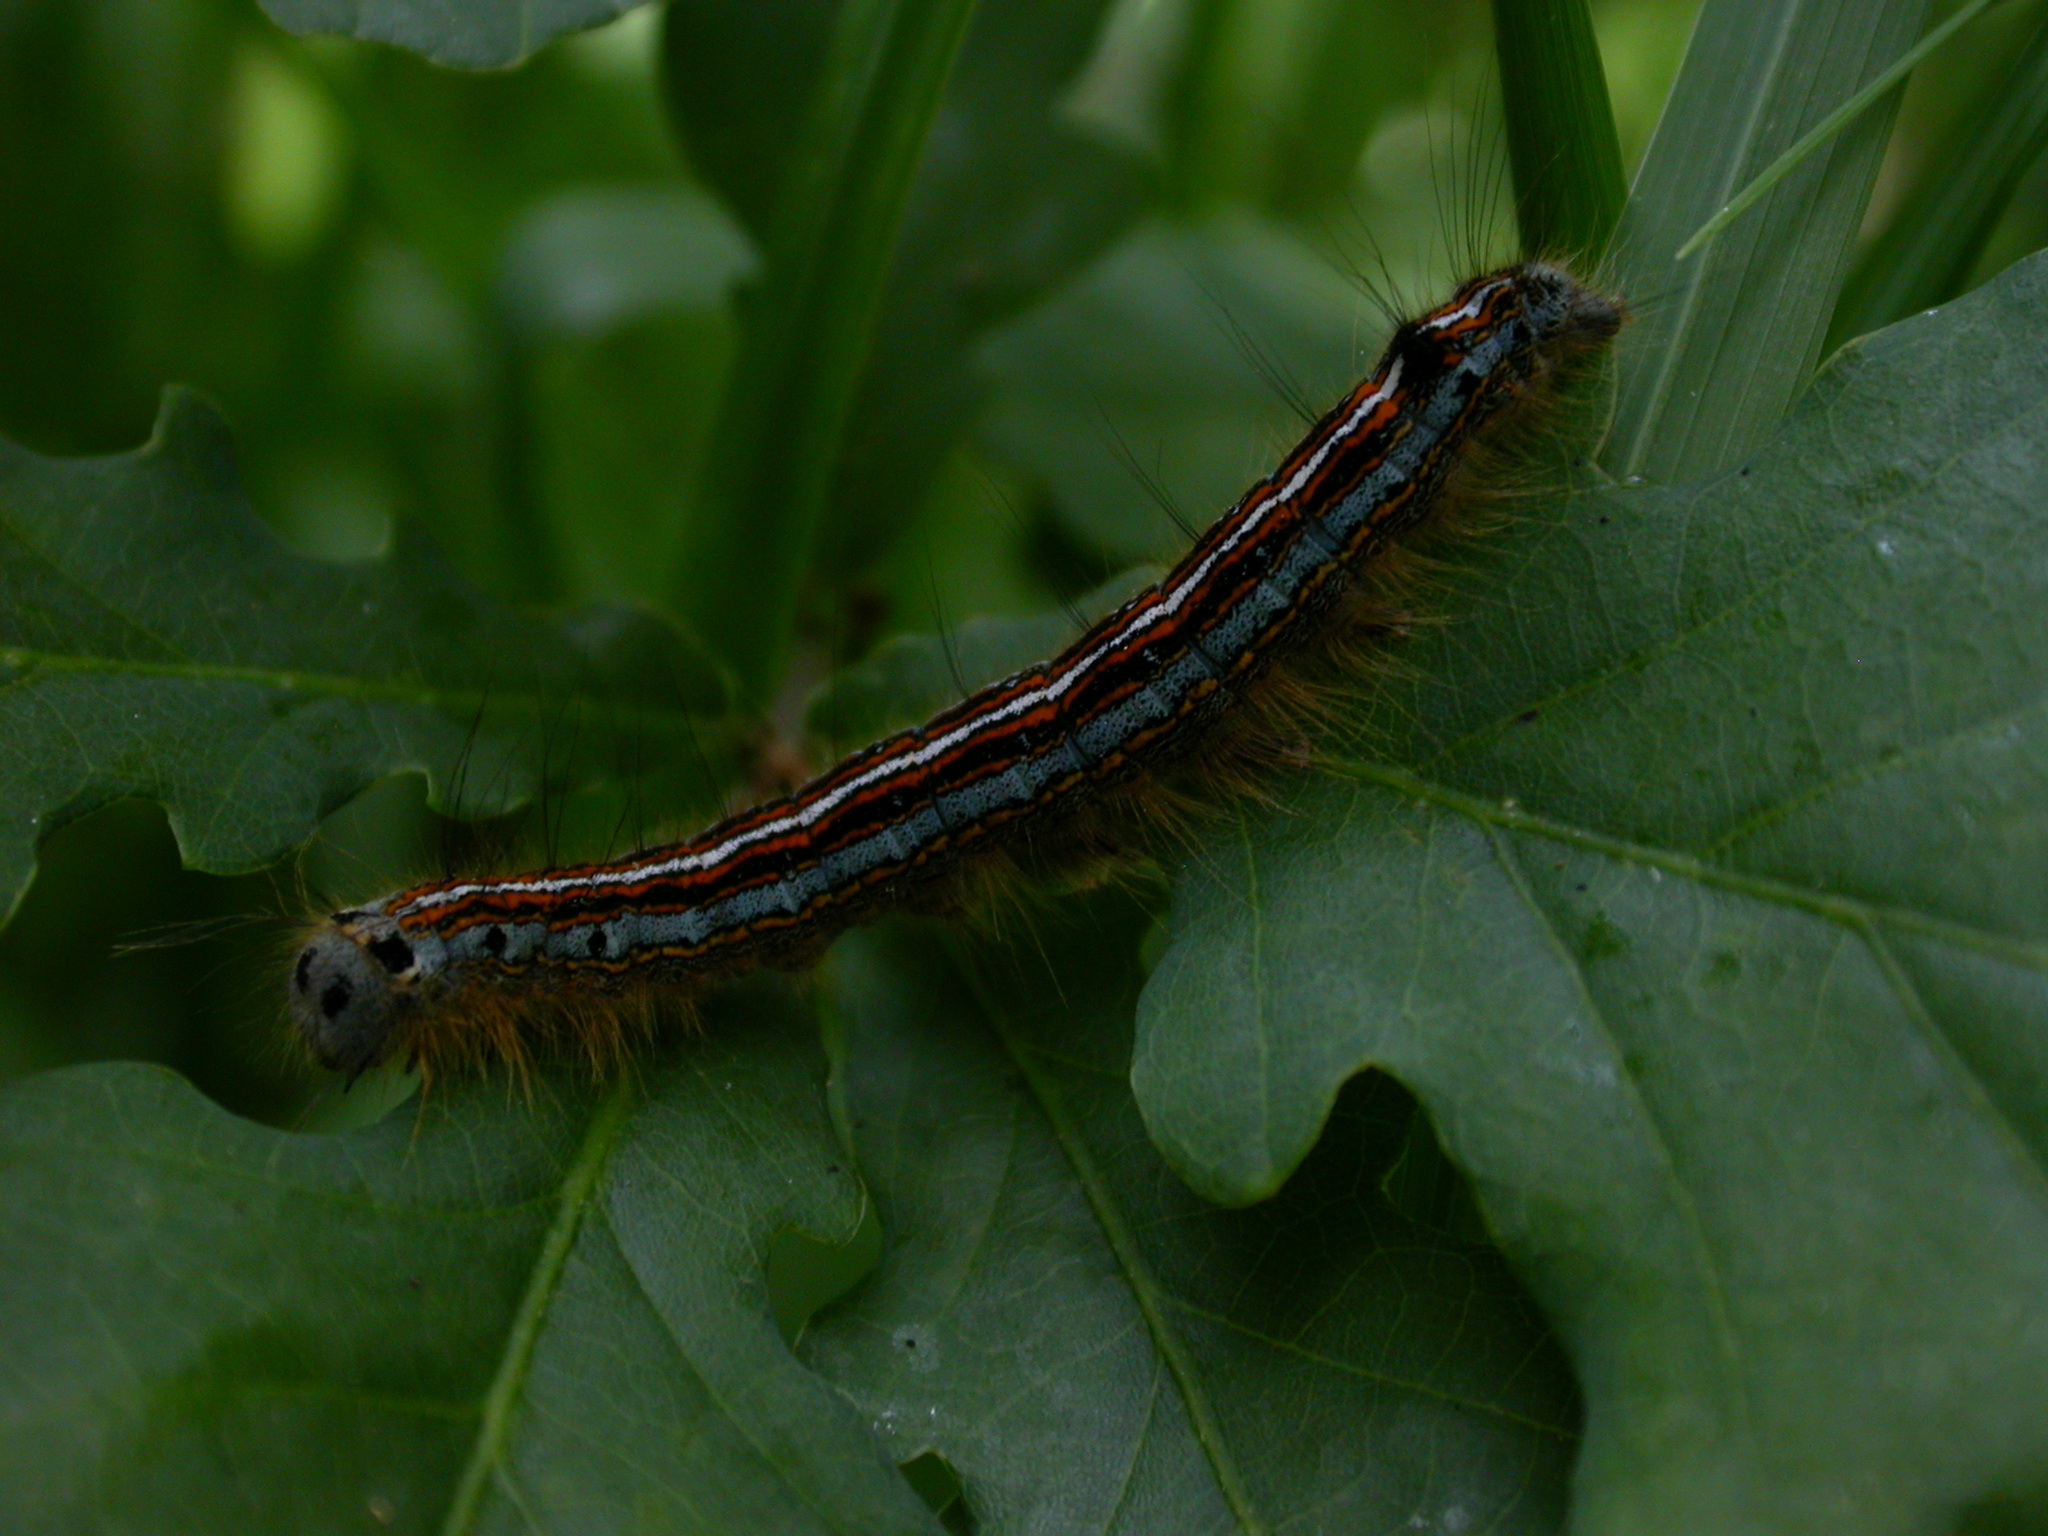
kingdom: Animalia
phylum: Arthropoda
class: Insecta
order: Lepidoptera
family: Lasiocampidae
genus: Malacosoma
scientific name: Malacosoma neustria
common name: The lackey
